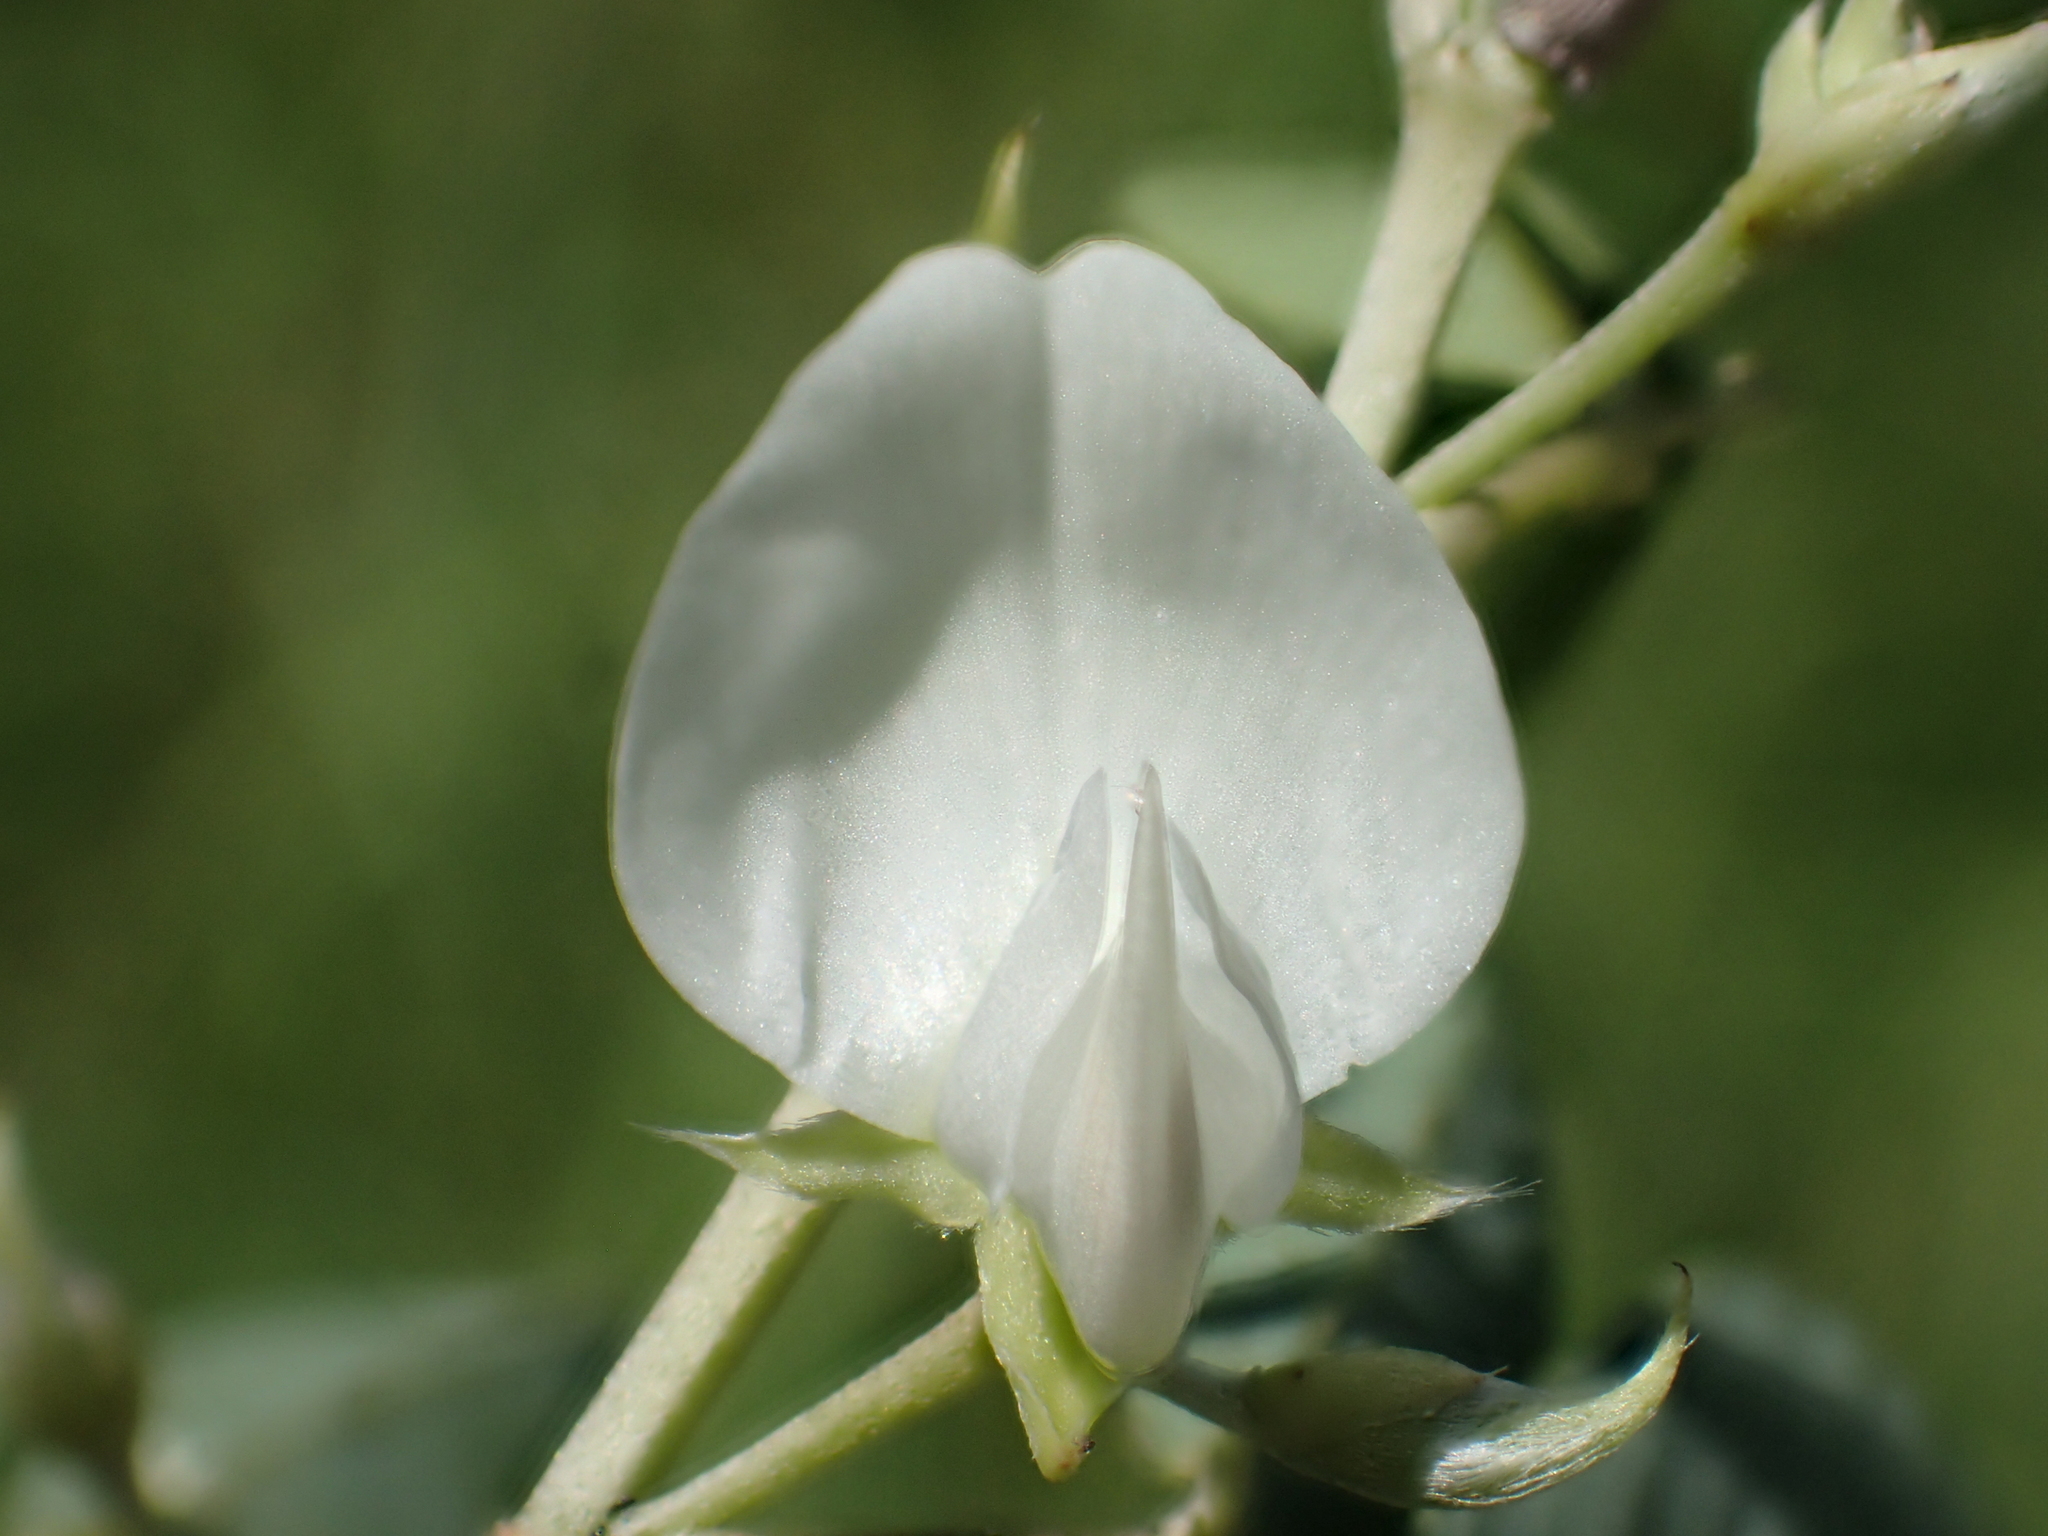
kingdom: Plantae
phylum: Tracheophyta
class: Magnoliopsida
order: Fabales
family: Fabaceae
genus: Dendrolobium
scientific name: Dendrolobium dispermum
